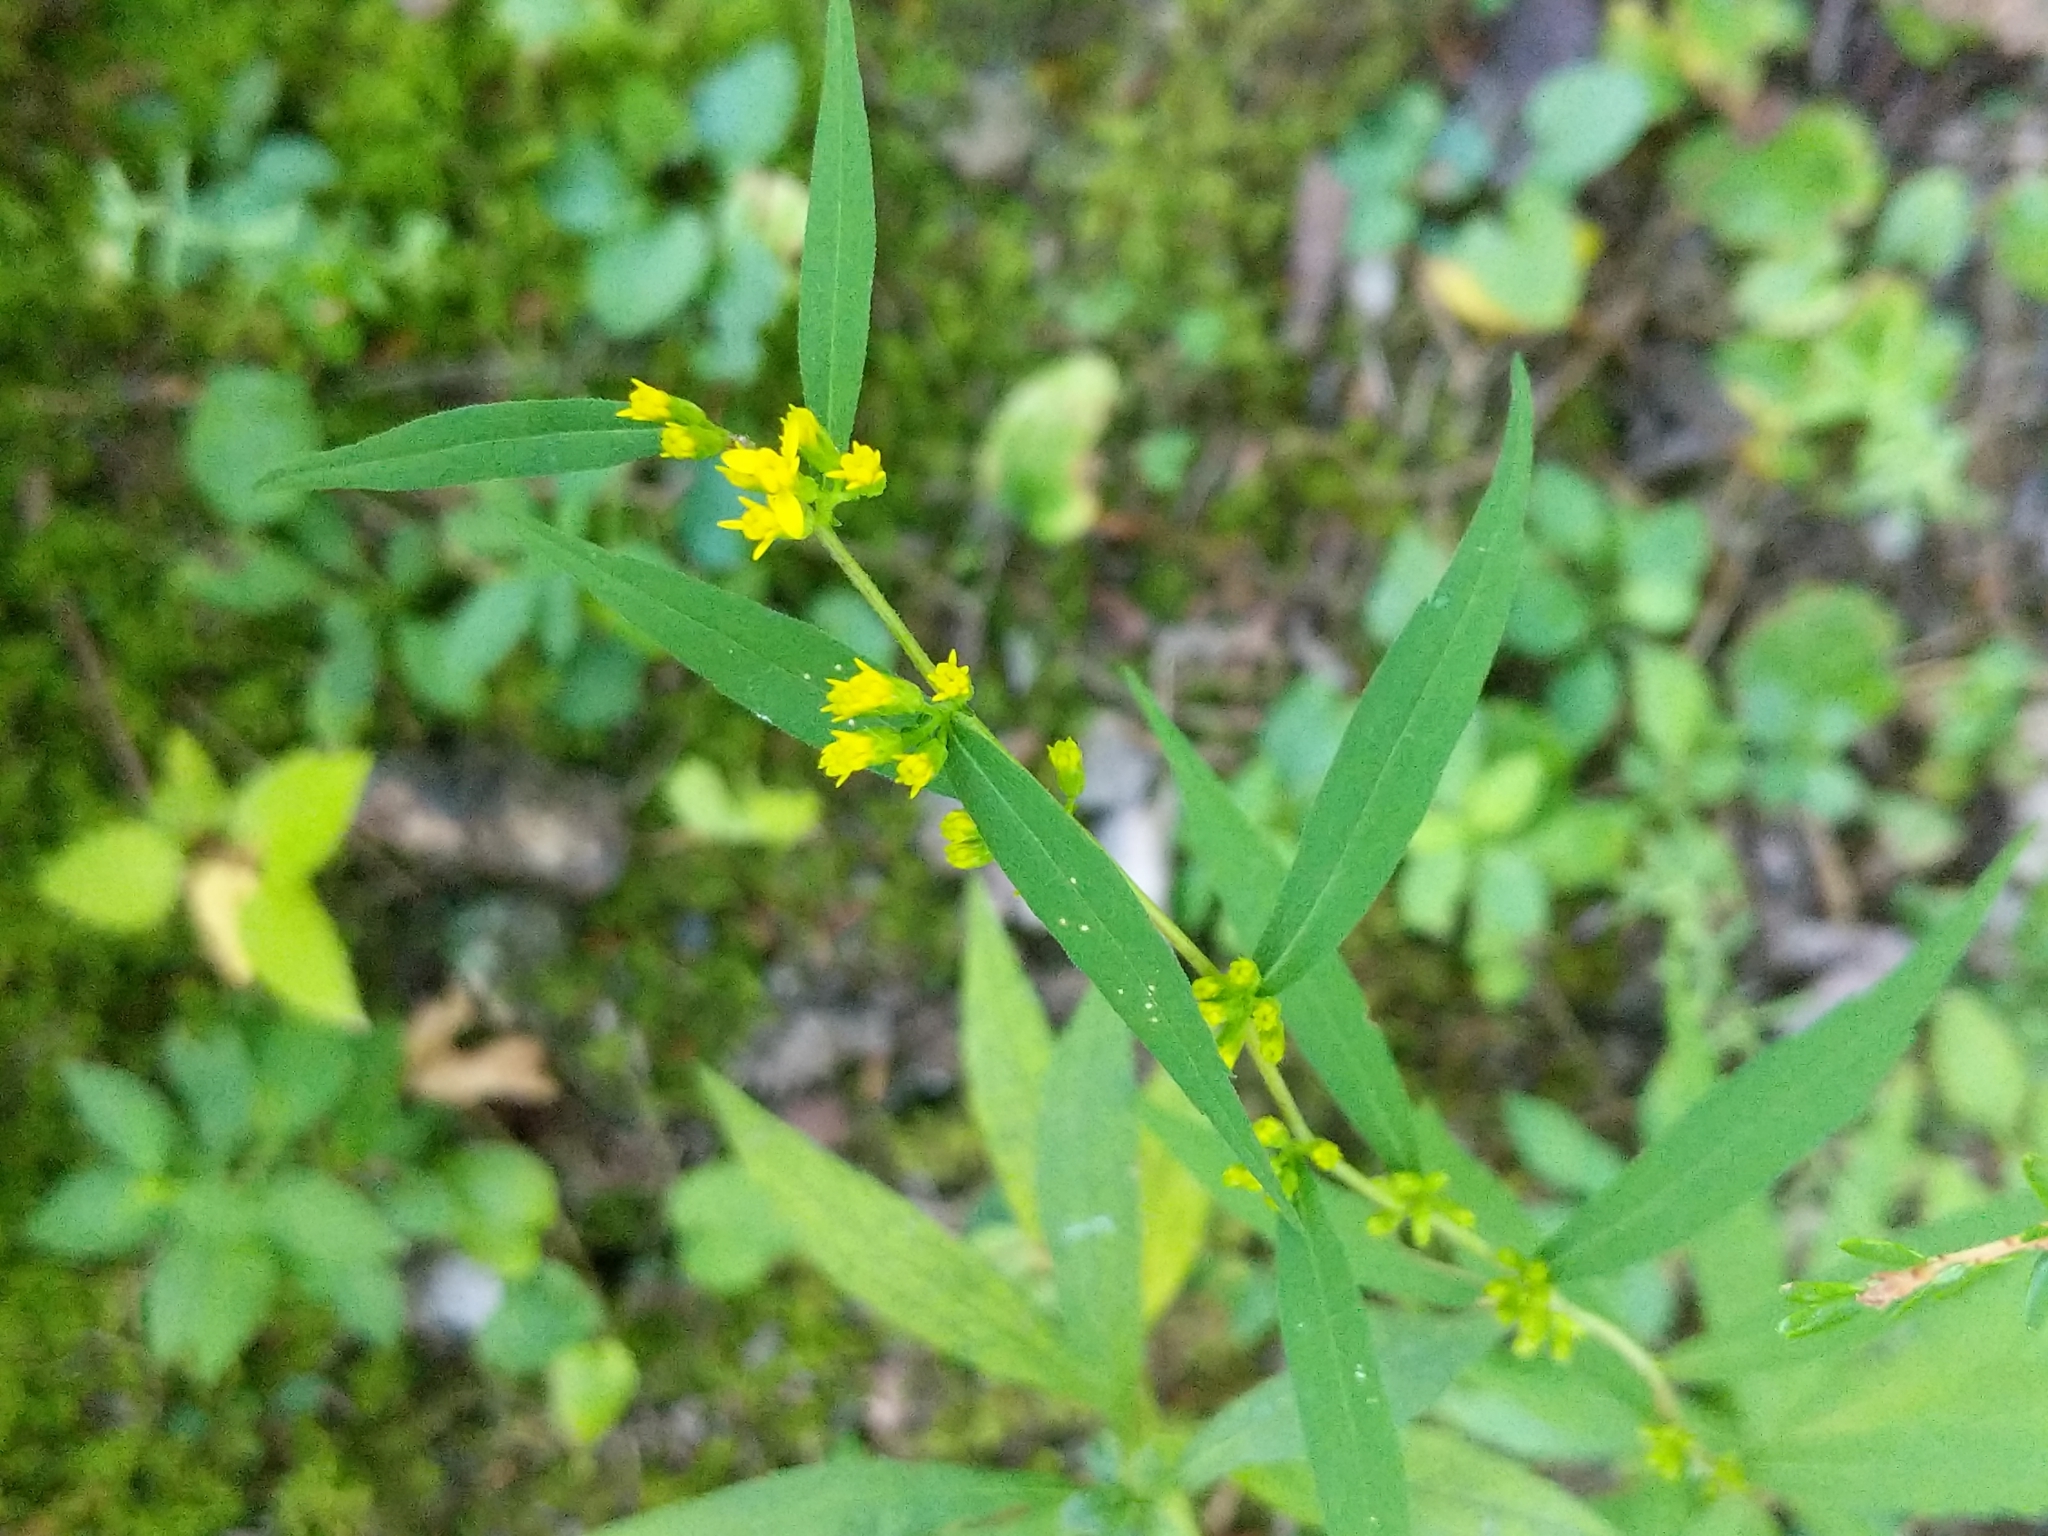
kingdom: Plantae
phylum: Tracheophyta
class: Magnoliopsida
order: Asterales
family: Asteraceae
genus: Solidago
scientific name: Solidago caesia
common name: Woodland goldenrod
